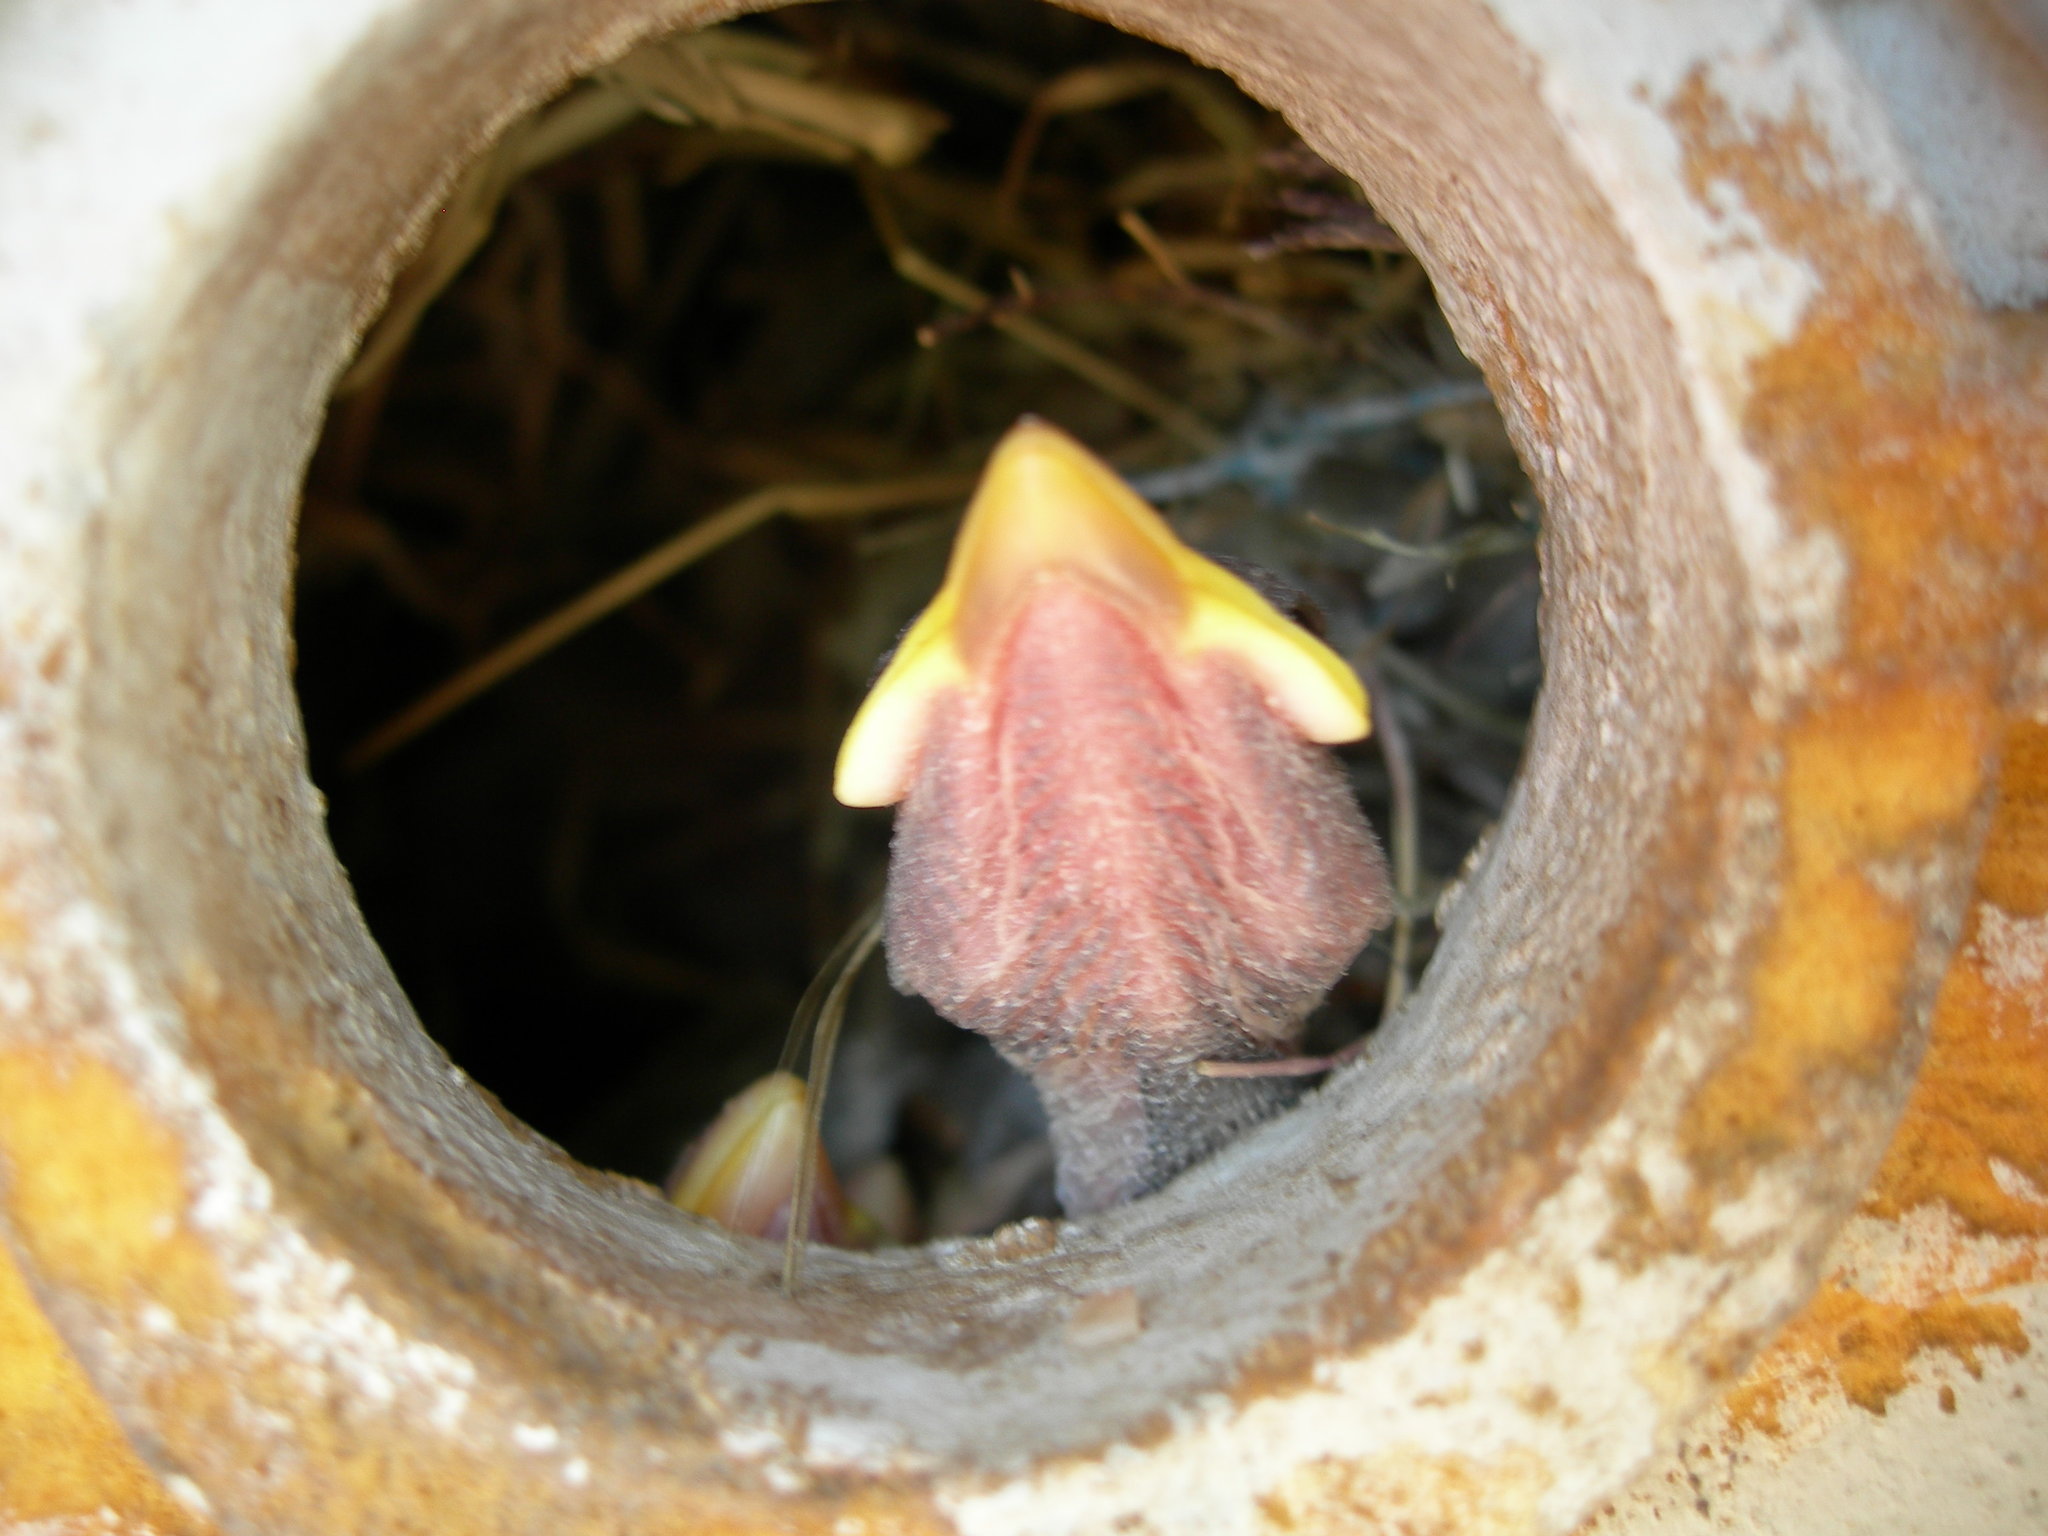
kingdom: Animalia
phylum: Chordata
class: Aves
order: Passeriformes
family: Passeridae
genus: Passer
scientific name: Passer domesticus
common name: House sparrow
